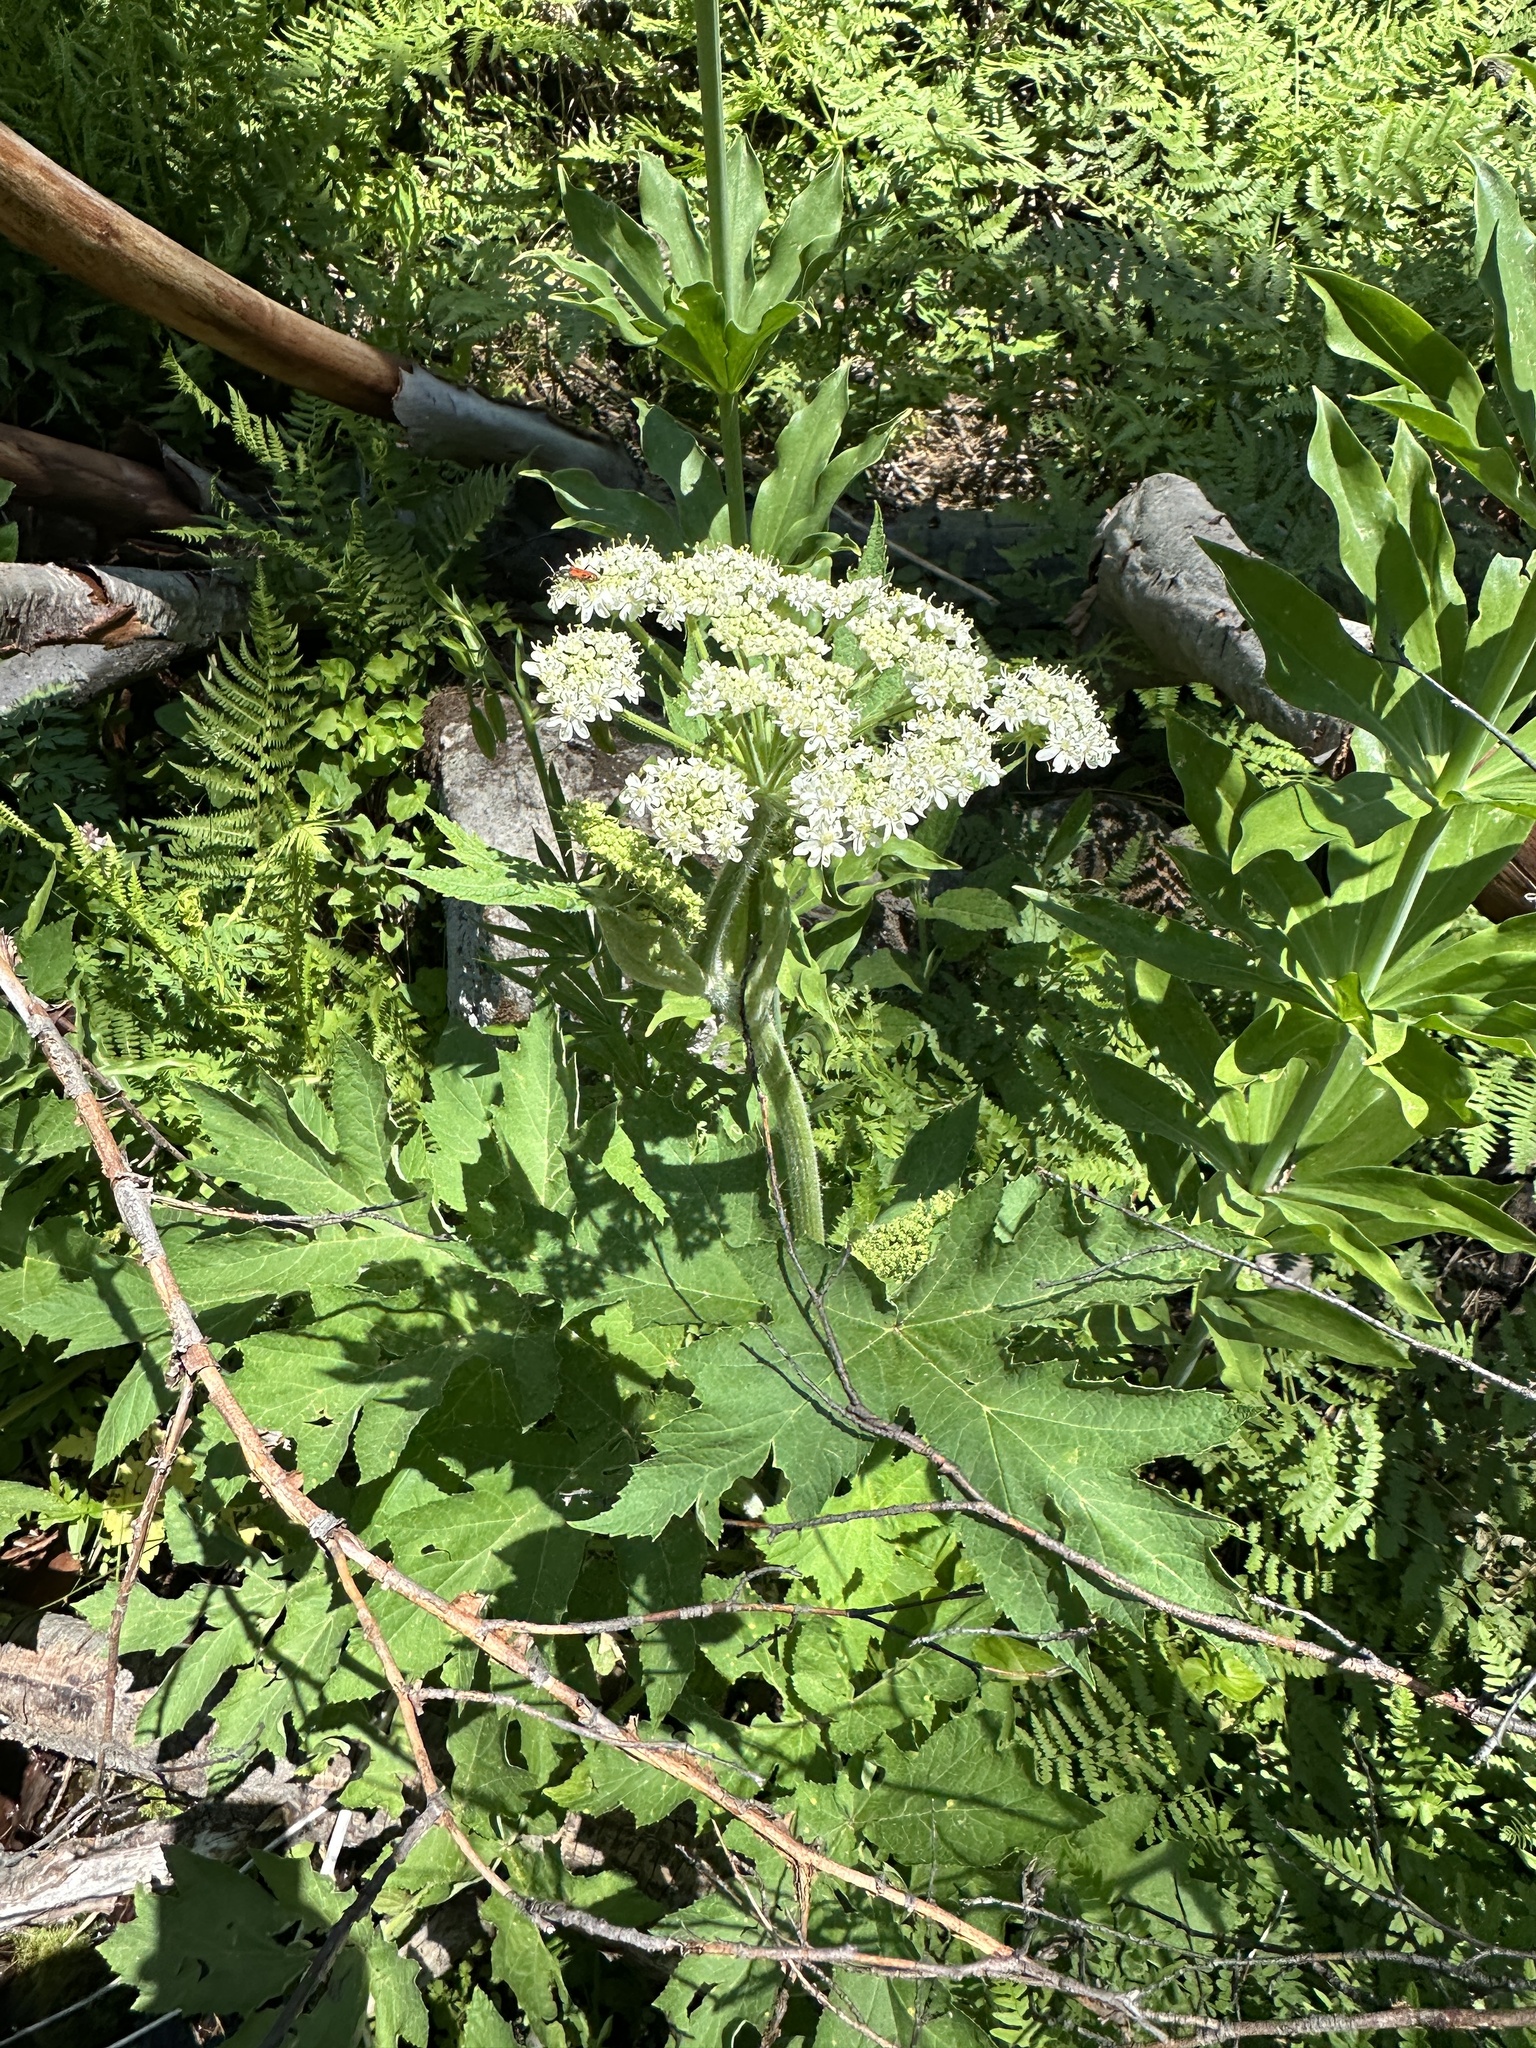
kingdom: Plantae
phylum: Tracheophyta
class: Magnoliopsida
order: Apiales
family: Apiaceae
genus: Heracleum
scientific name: Heracleum maximum
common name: American cow parsnip
